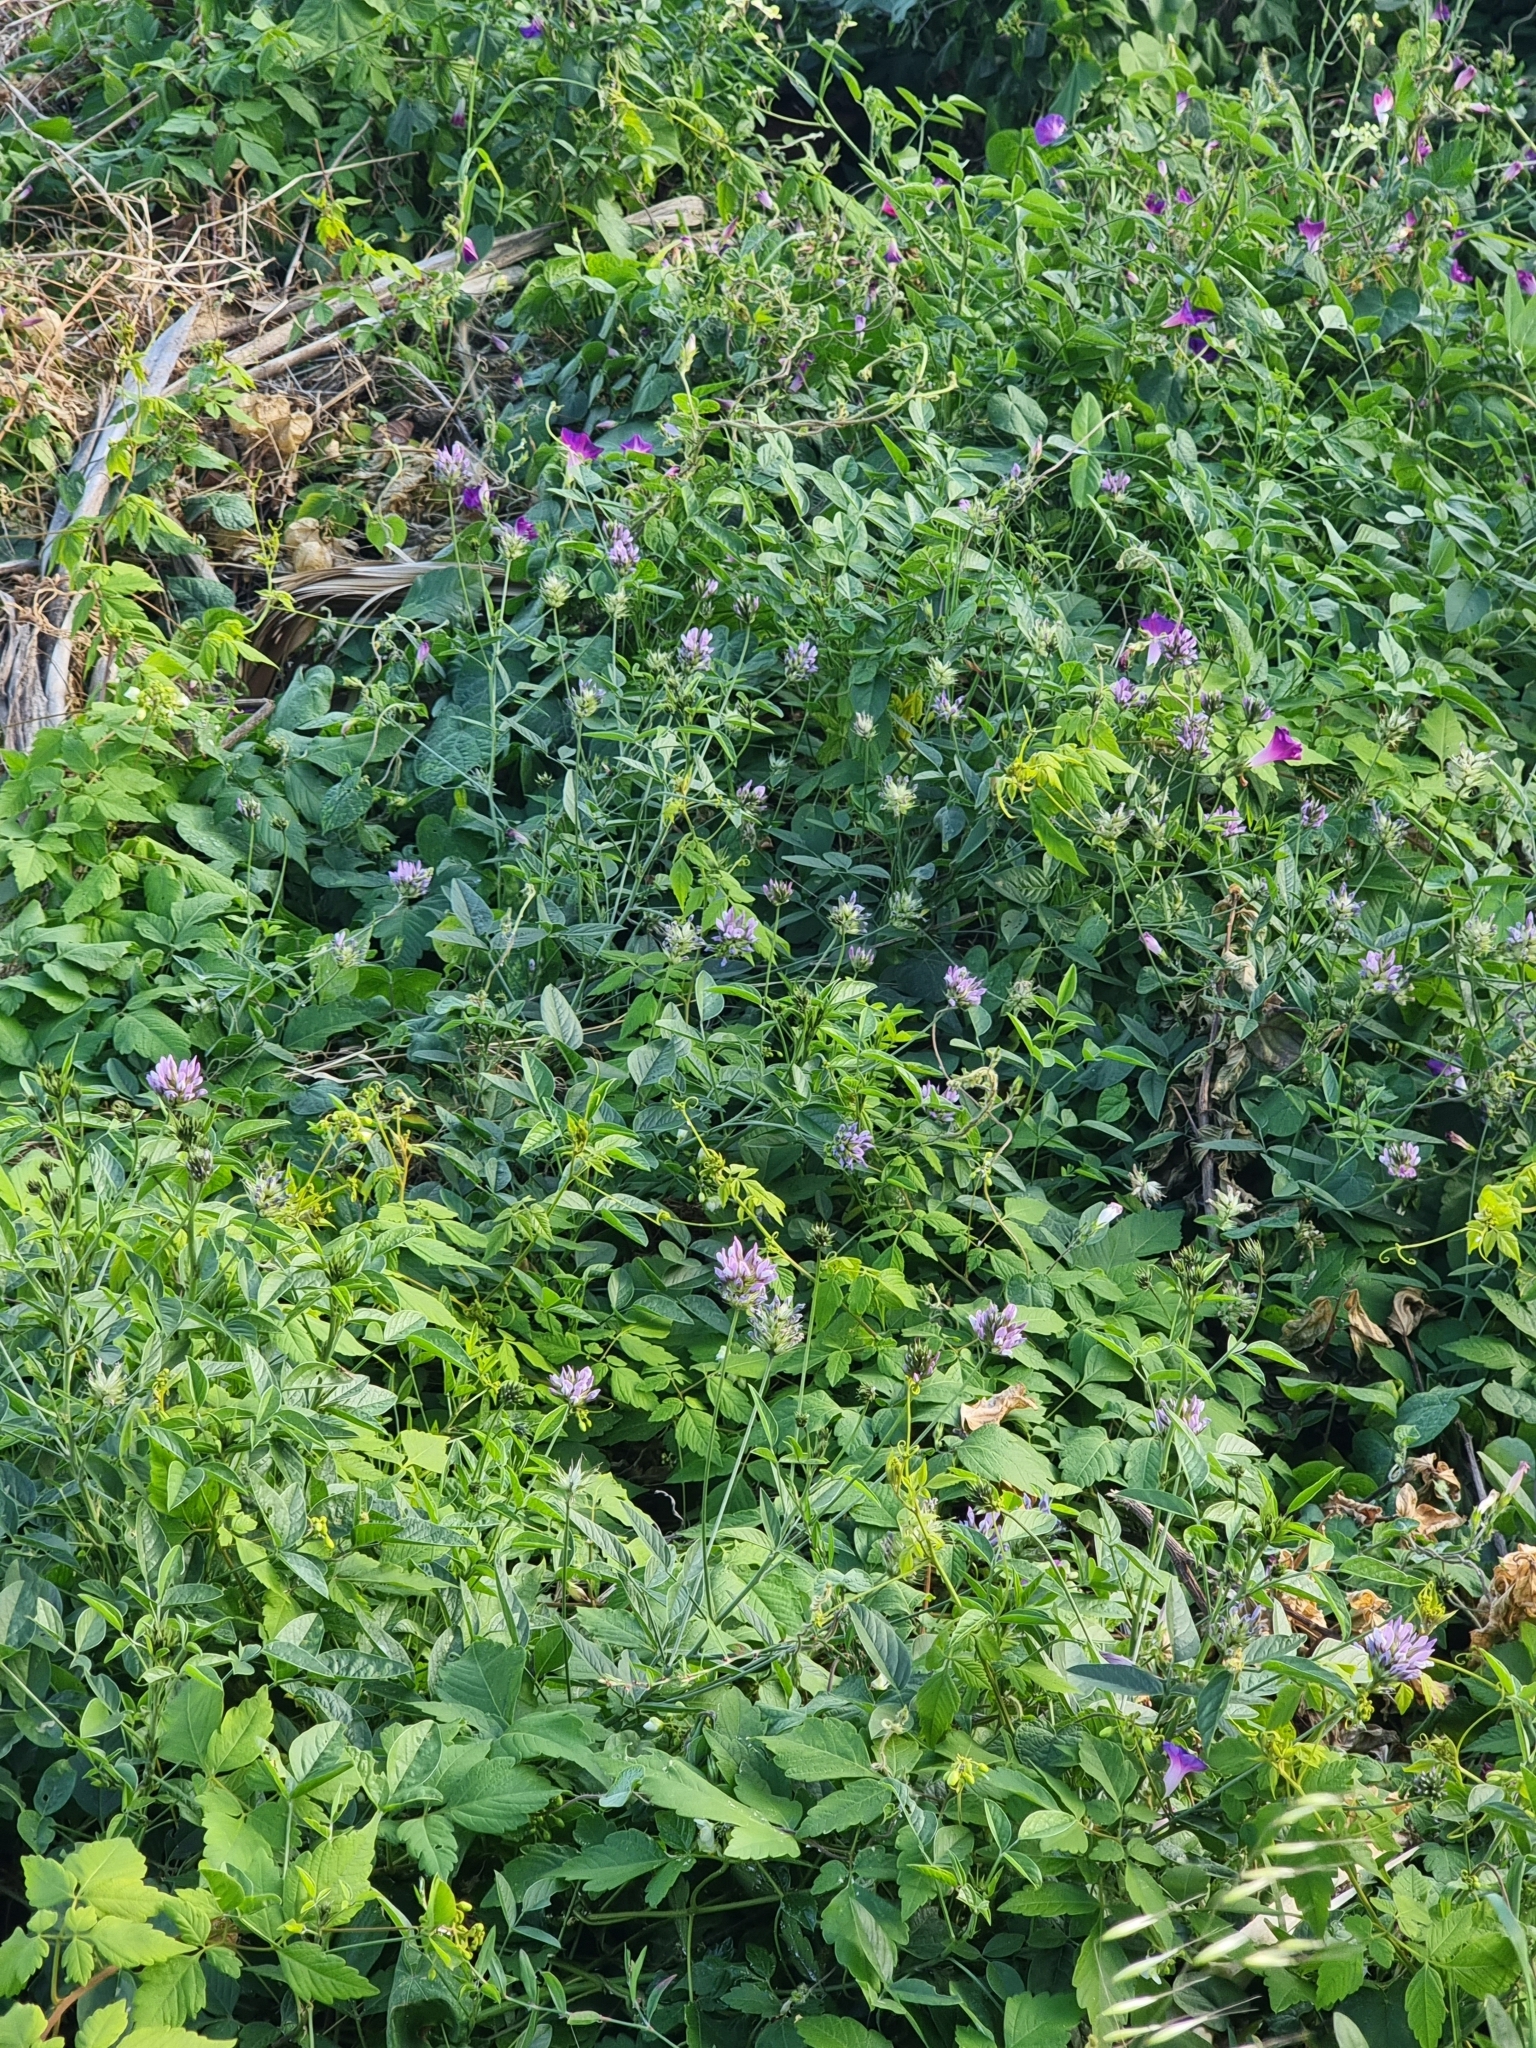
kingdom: Plantae
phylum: Tracheophyta
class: Magnoliopsida
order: Fabales
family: Fabaceae
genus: Bituminaria
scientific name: Bituminaria bituminosa
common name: Arabian pea
